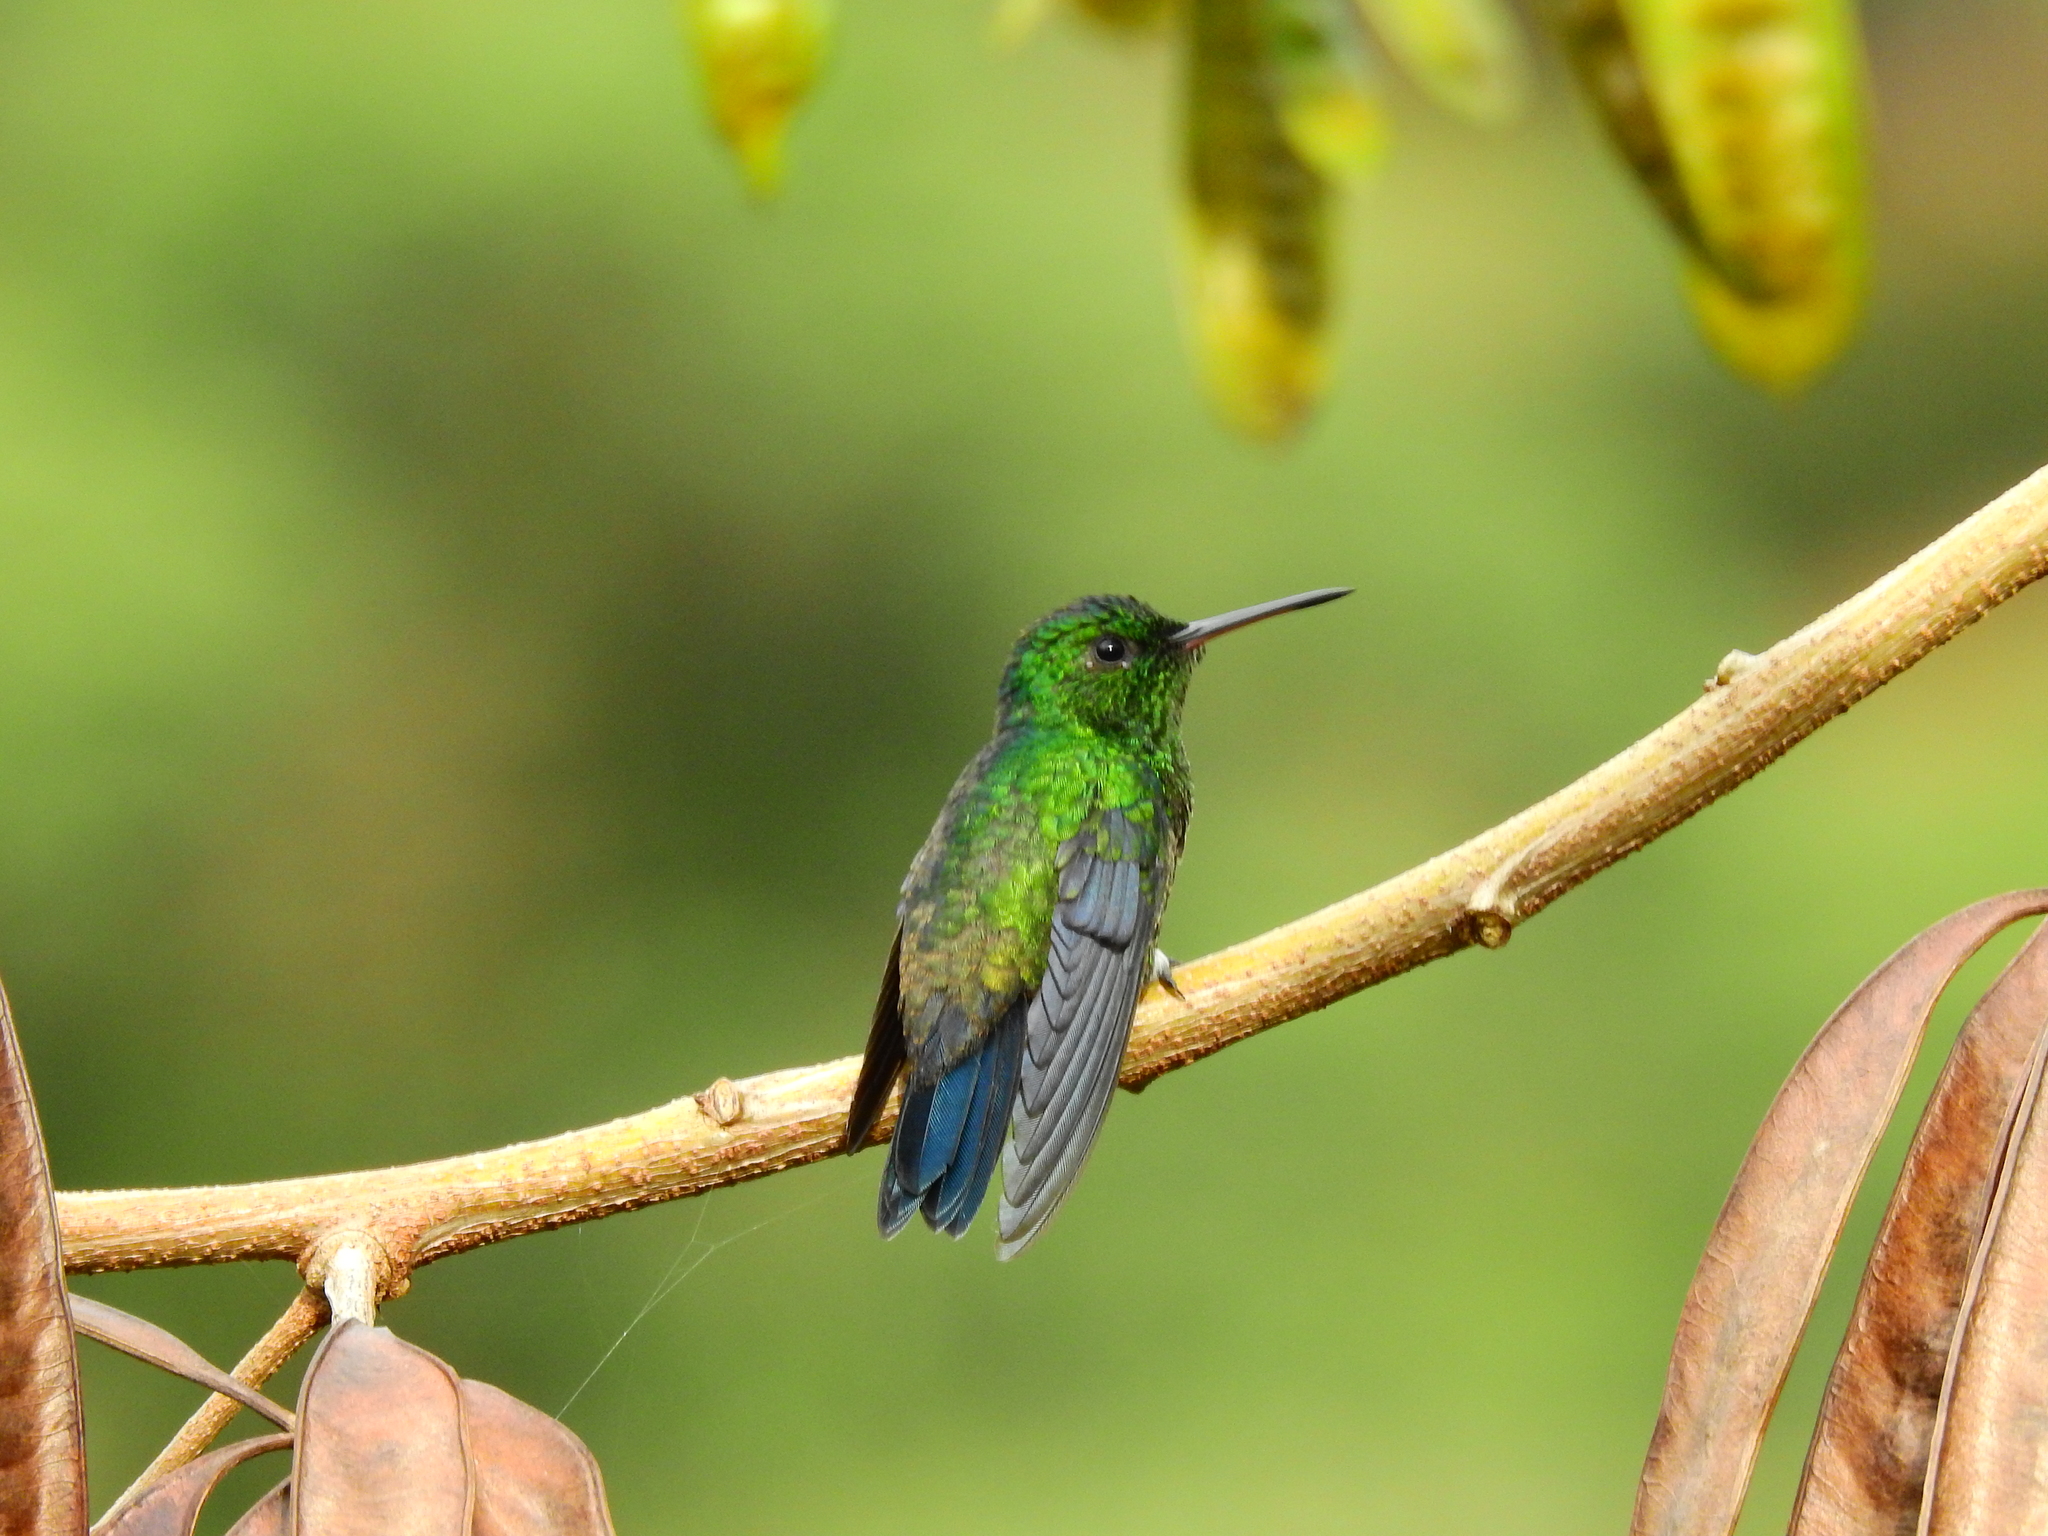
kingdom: Animalia
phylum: Chordata
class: Aves
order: Apodiformes
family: Trochilidae
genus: Chlorostilbon
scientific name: Chlorostilbon melanorhynchus
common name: Western emerald
